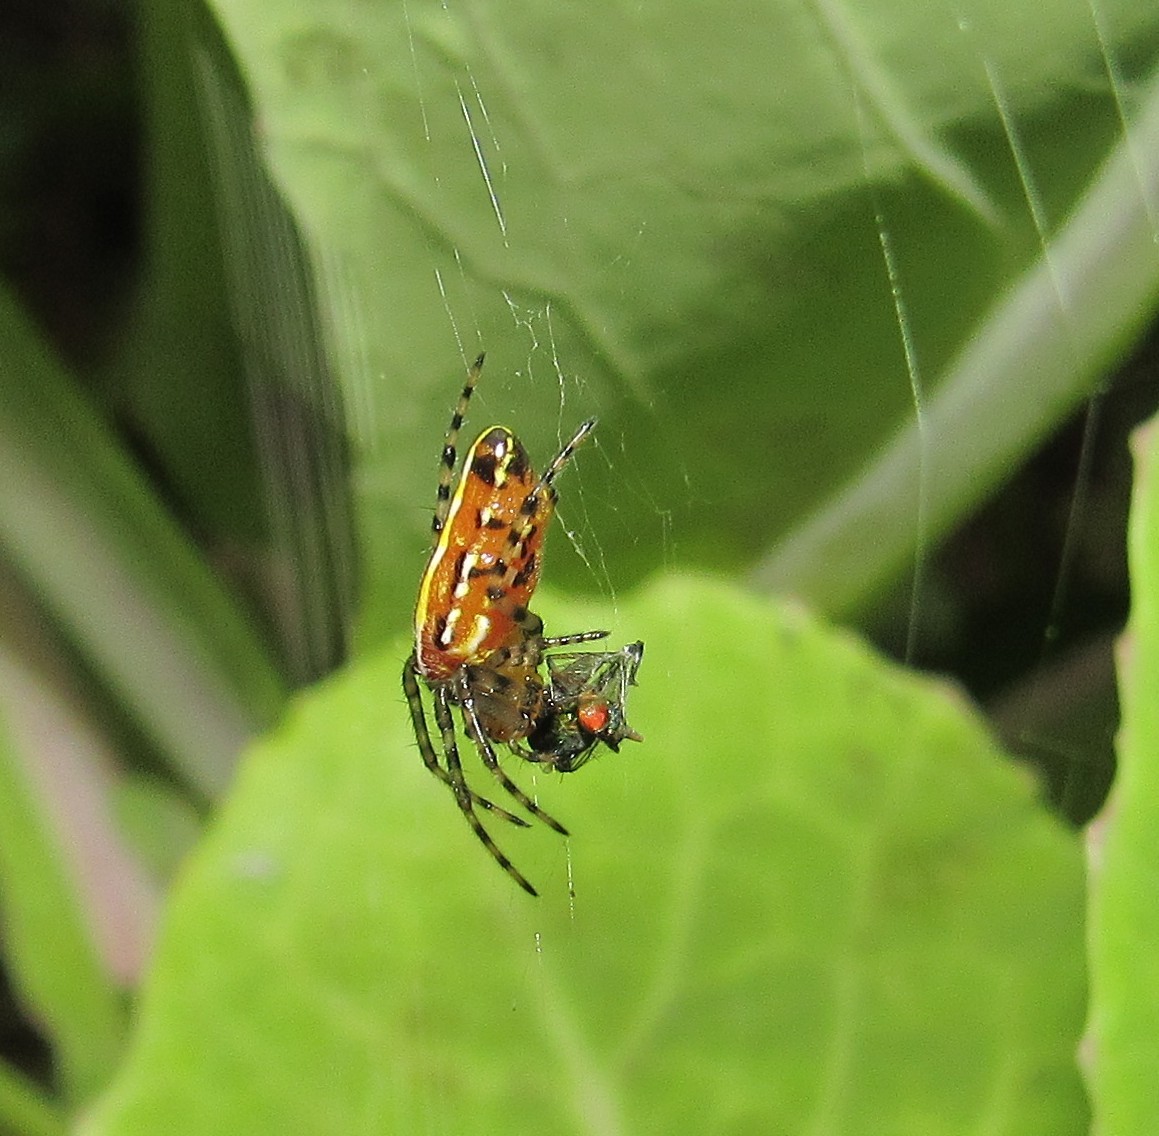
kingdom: Animalia
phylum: Arthropoda
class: Arachnida
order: Araneae
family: Araneidae
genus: Alpaida
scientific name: Alpaida grayi
